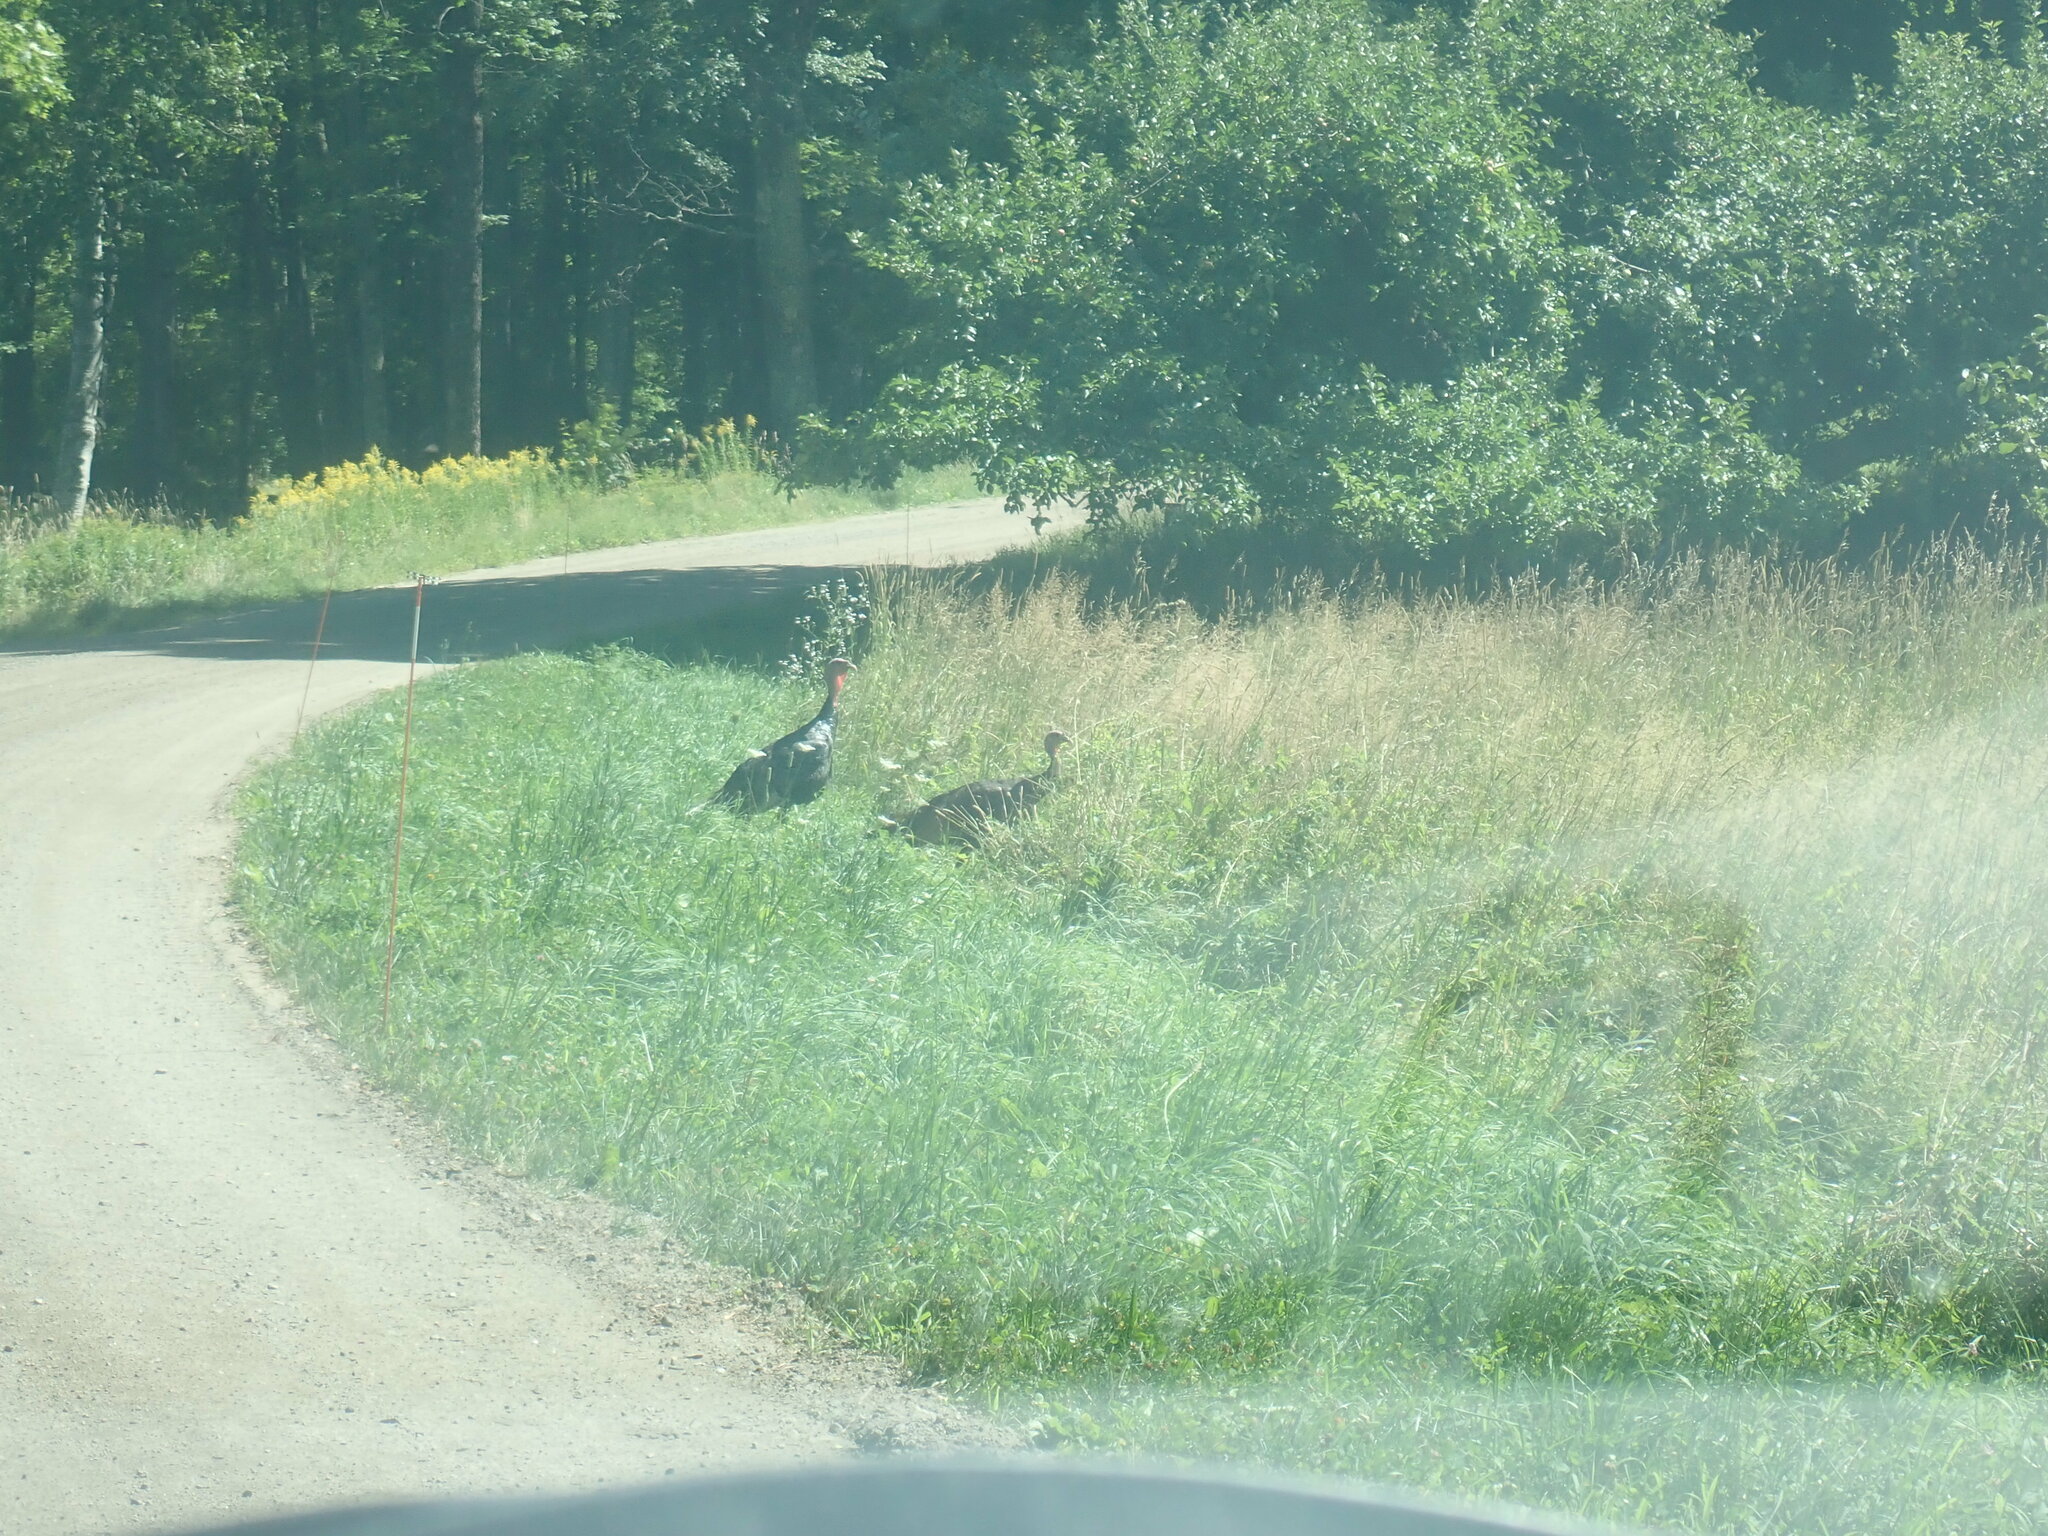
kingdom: Animalia
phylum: Chordata
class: Aves
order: Galliformes
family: Phasianidae
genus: Meleagris
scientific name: Meleagris gallopavo
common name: Wild turkey
